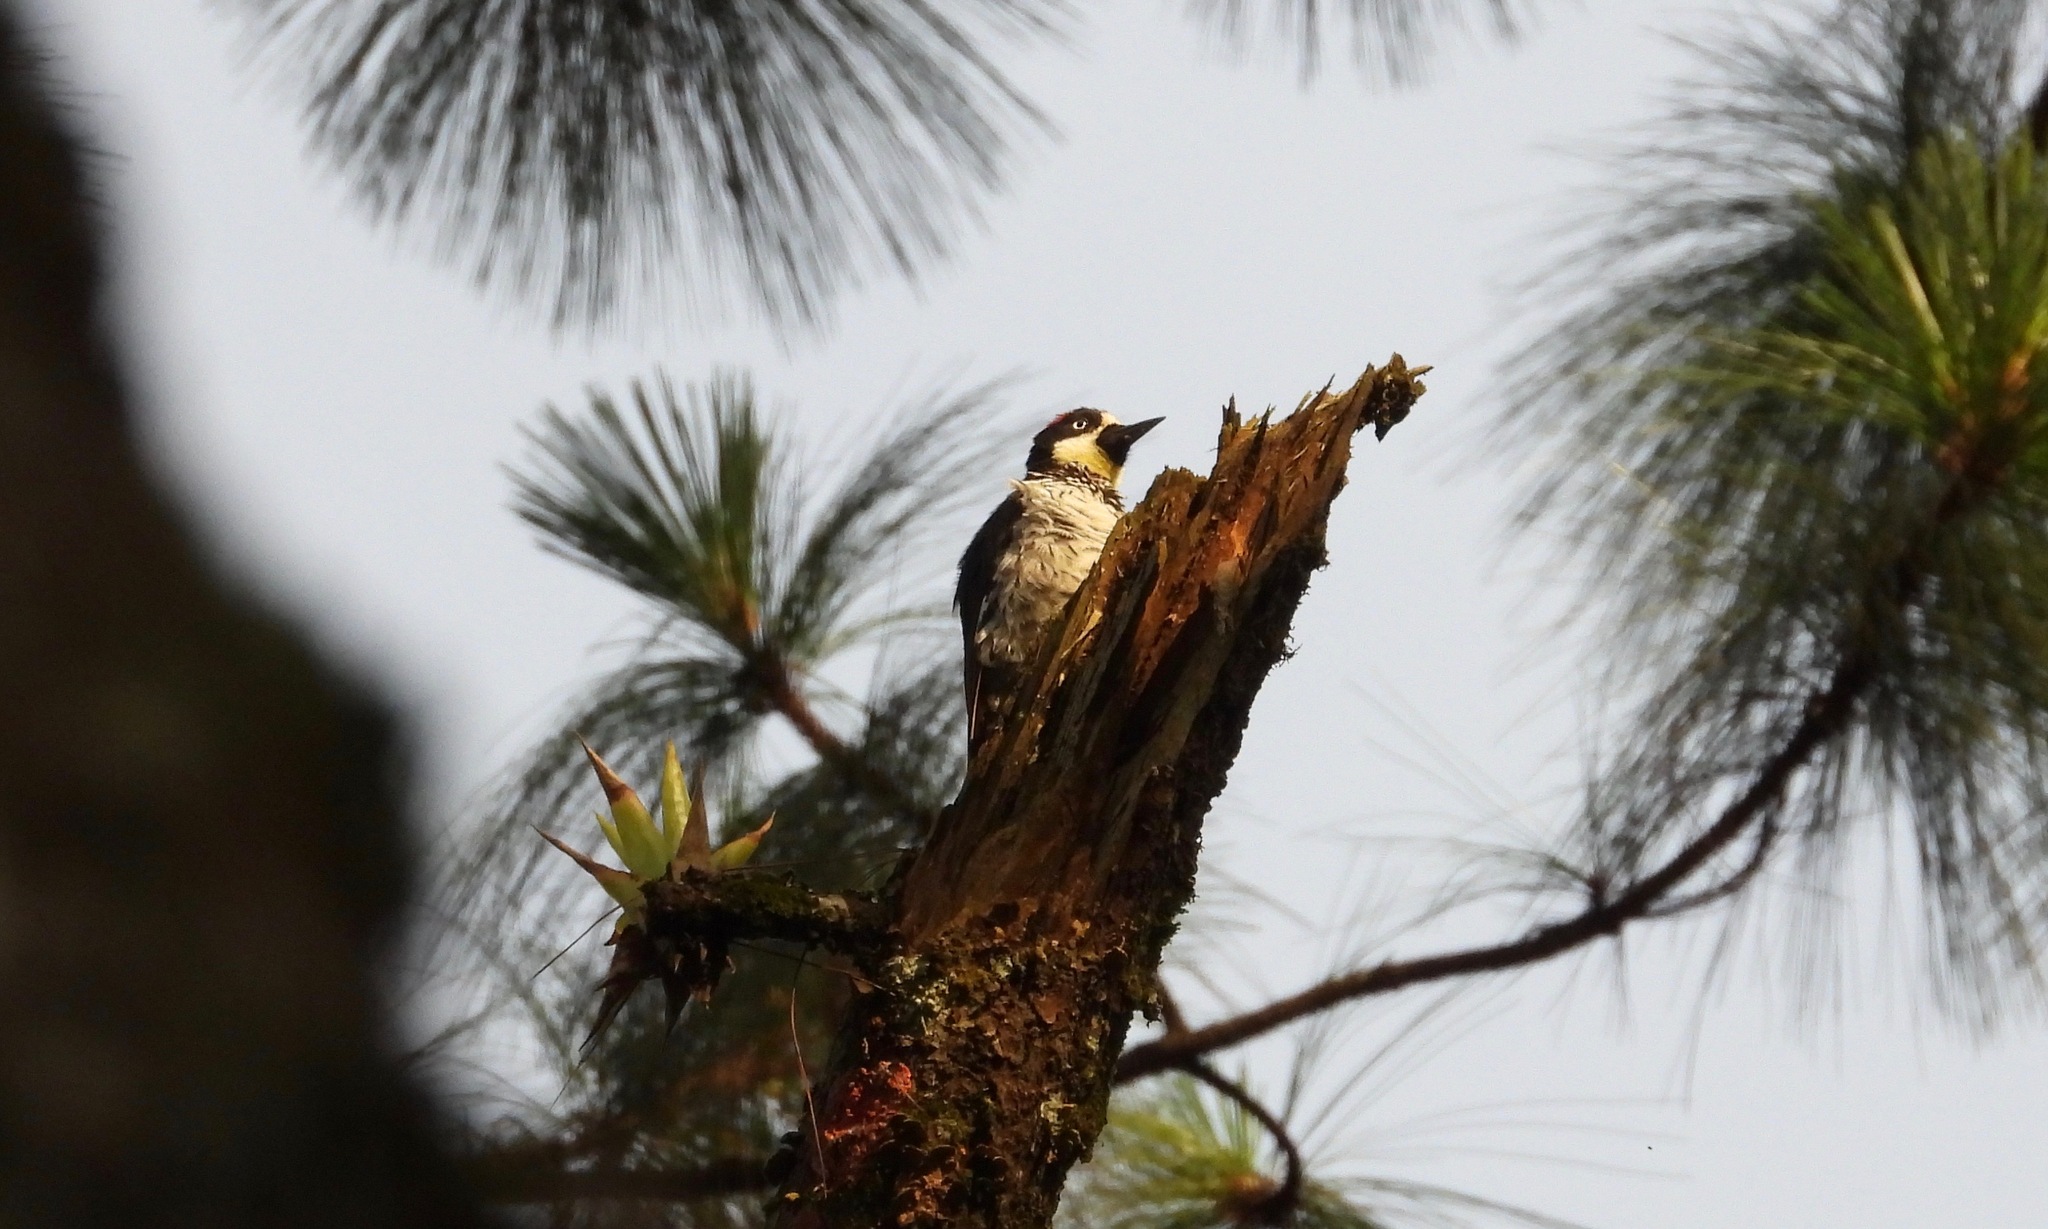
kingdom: Animalia
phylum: Chordata
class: Aves
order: Piciformes
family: Picidae
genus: Melanerpes
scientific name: Melanerpes formicivorus
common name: Acorn woodpecker
